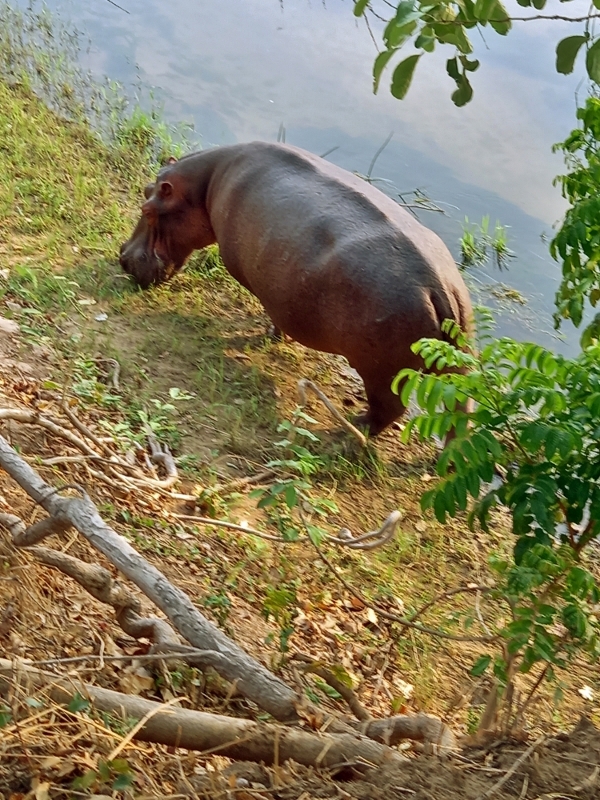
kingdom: Animalia
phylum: Chordata
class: Mammalia
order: Artiodactyla
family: Hippopotamidae
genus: Hippopotamus
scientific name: Hippopotamus amphibius
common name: Common hippopotamus
